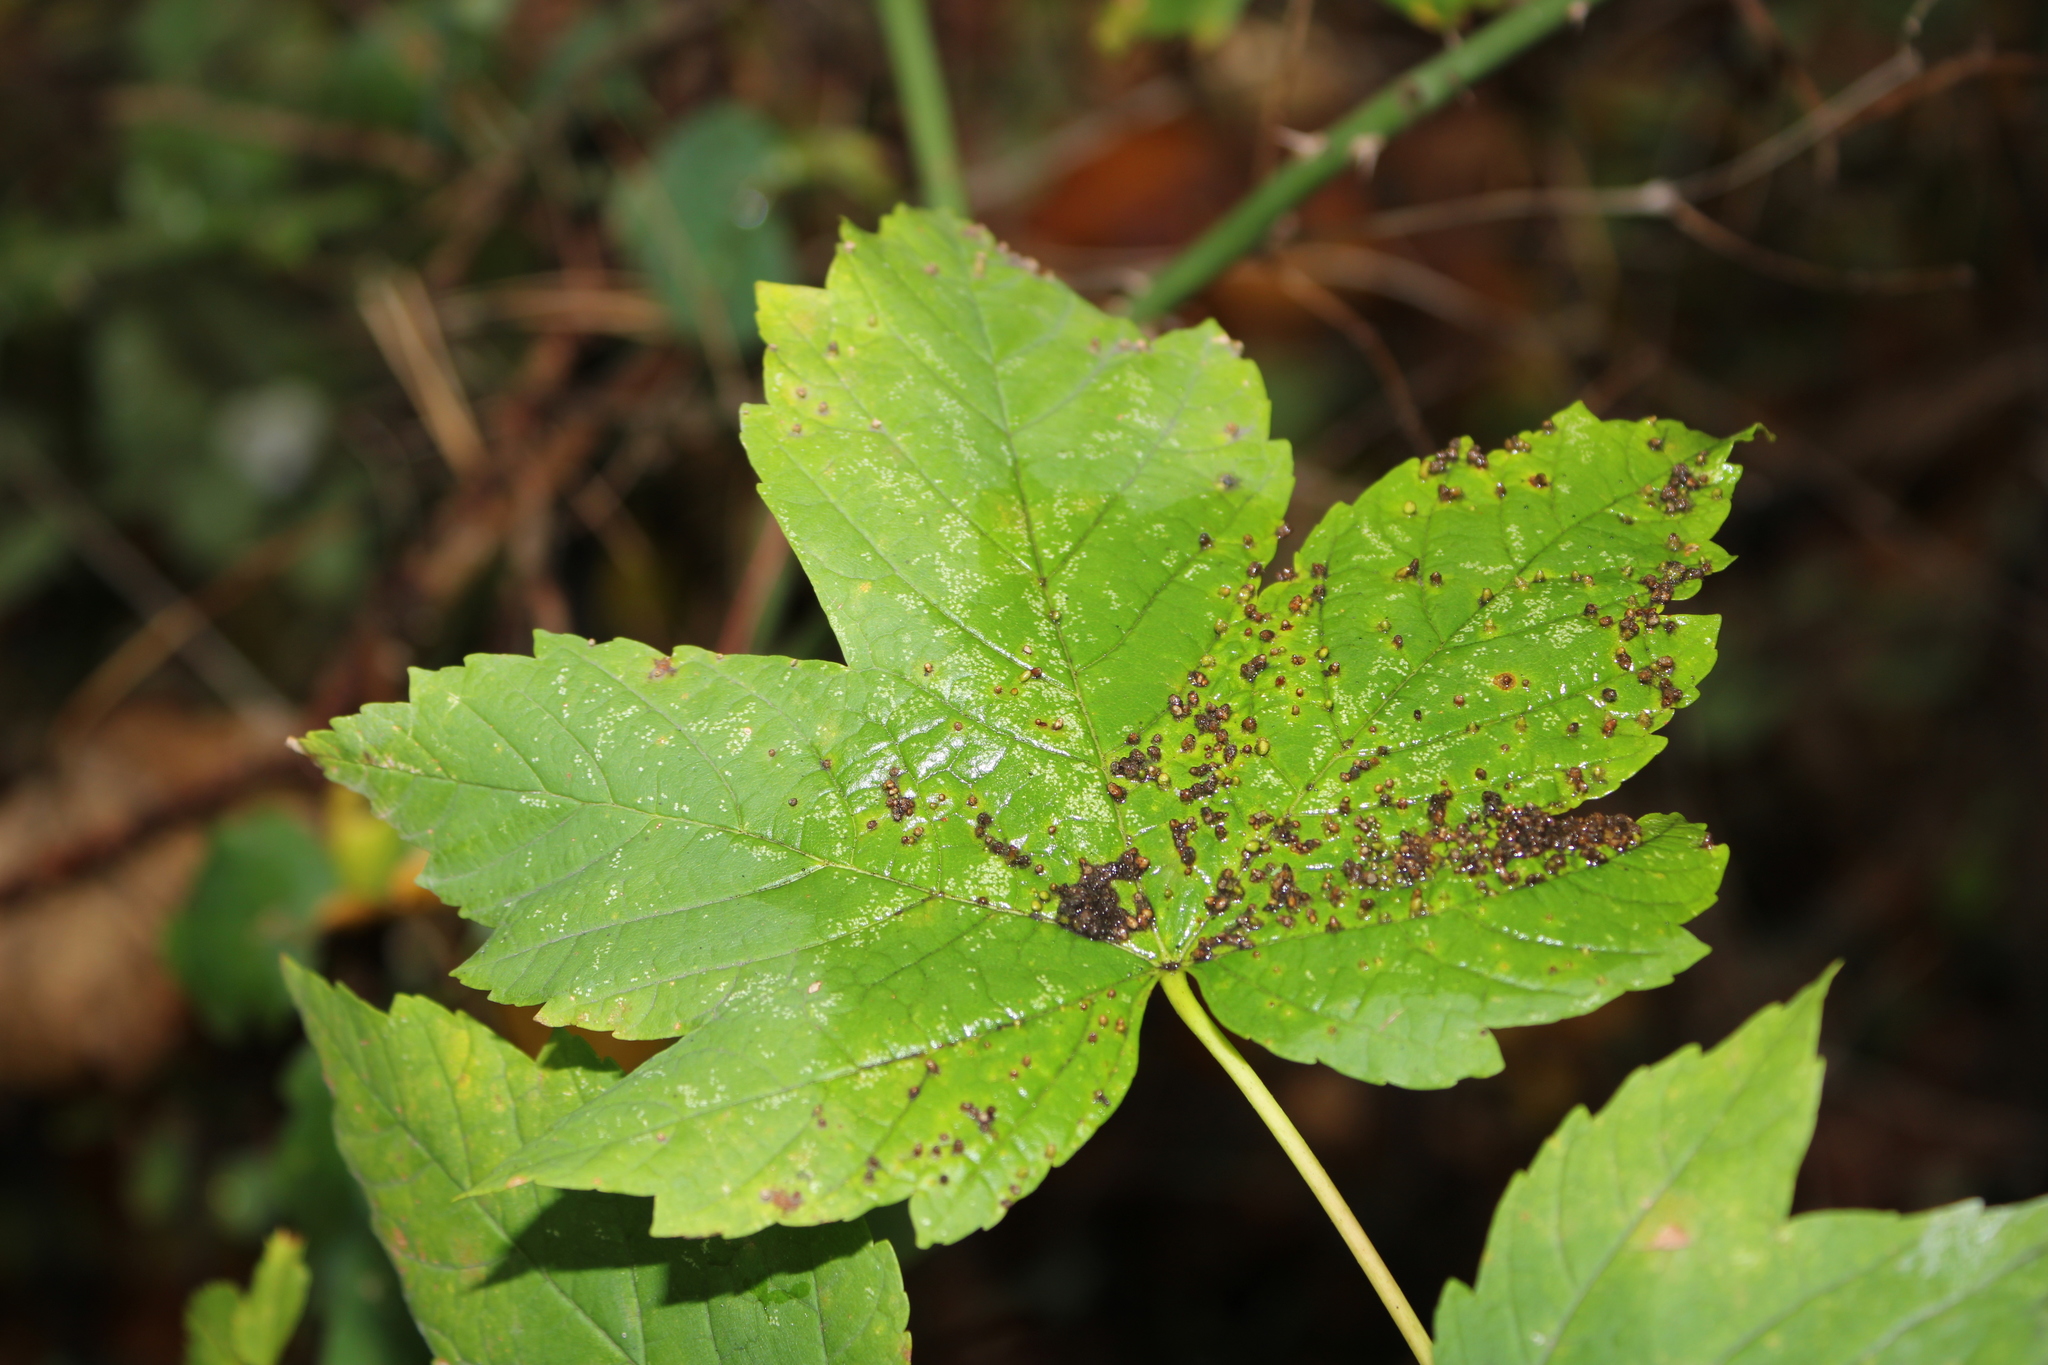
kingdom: Plantae
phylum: Tracheophyta
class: Magnoliopsida
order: Sapindales
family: Sapindaceae
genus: Acer
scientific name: Acer pseudoplatanus
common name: Sycamore
